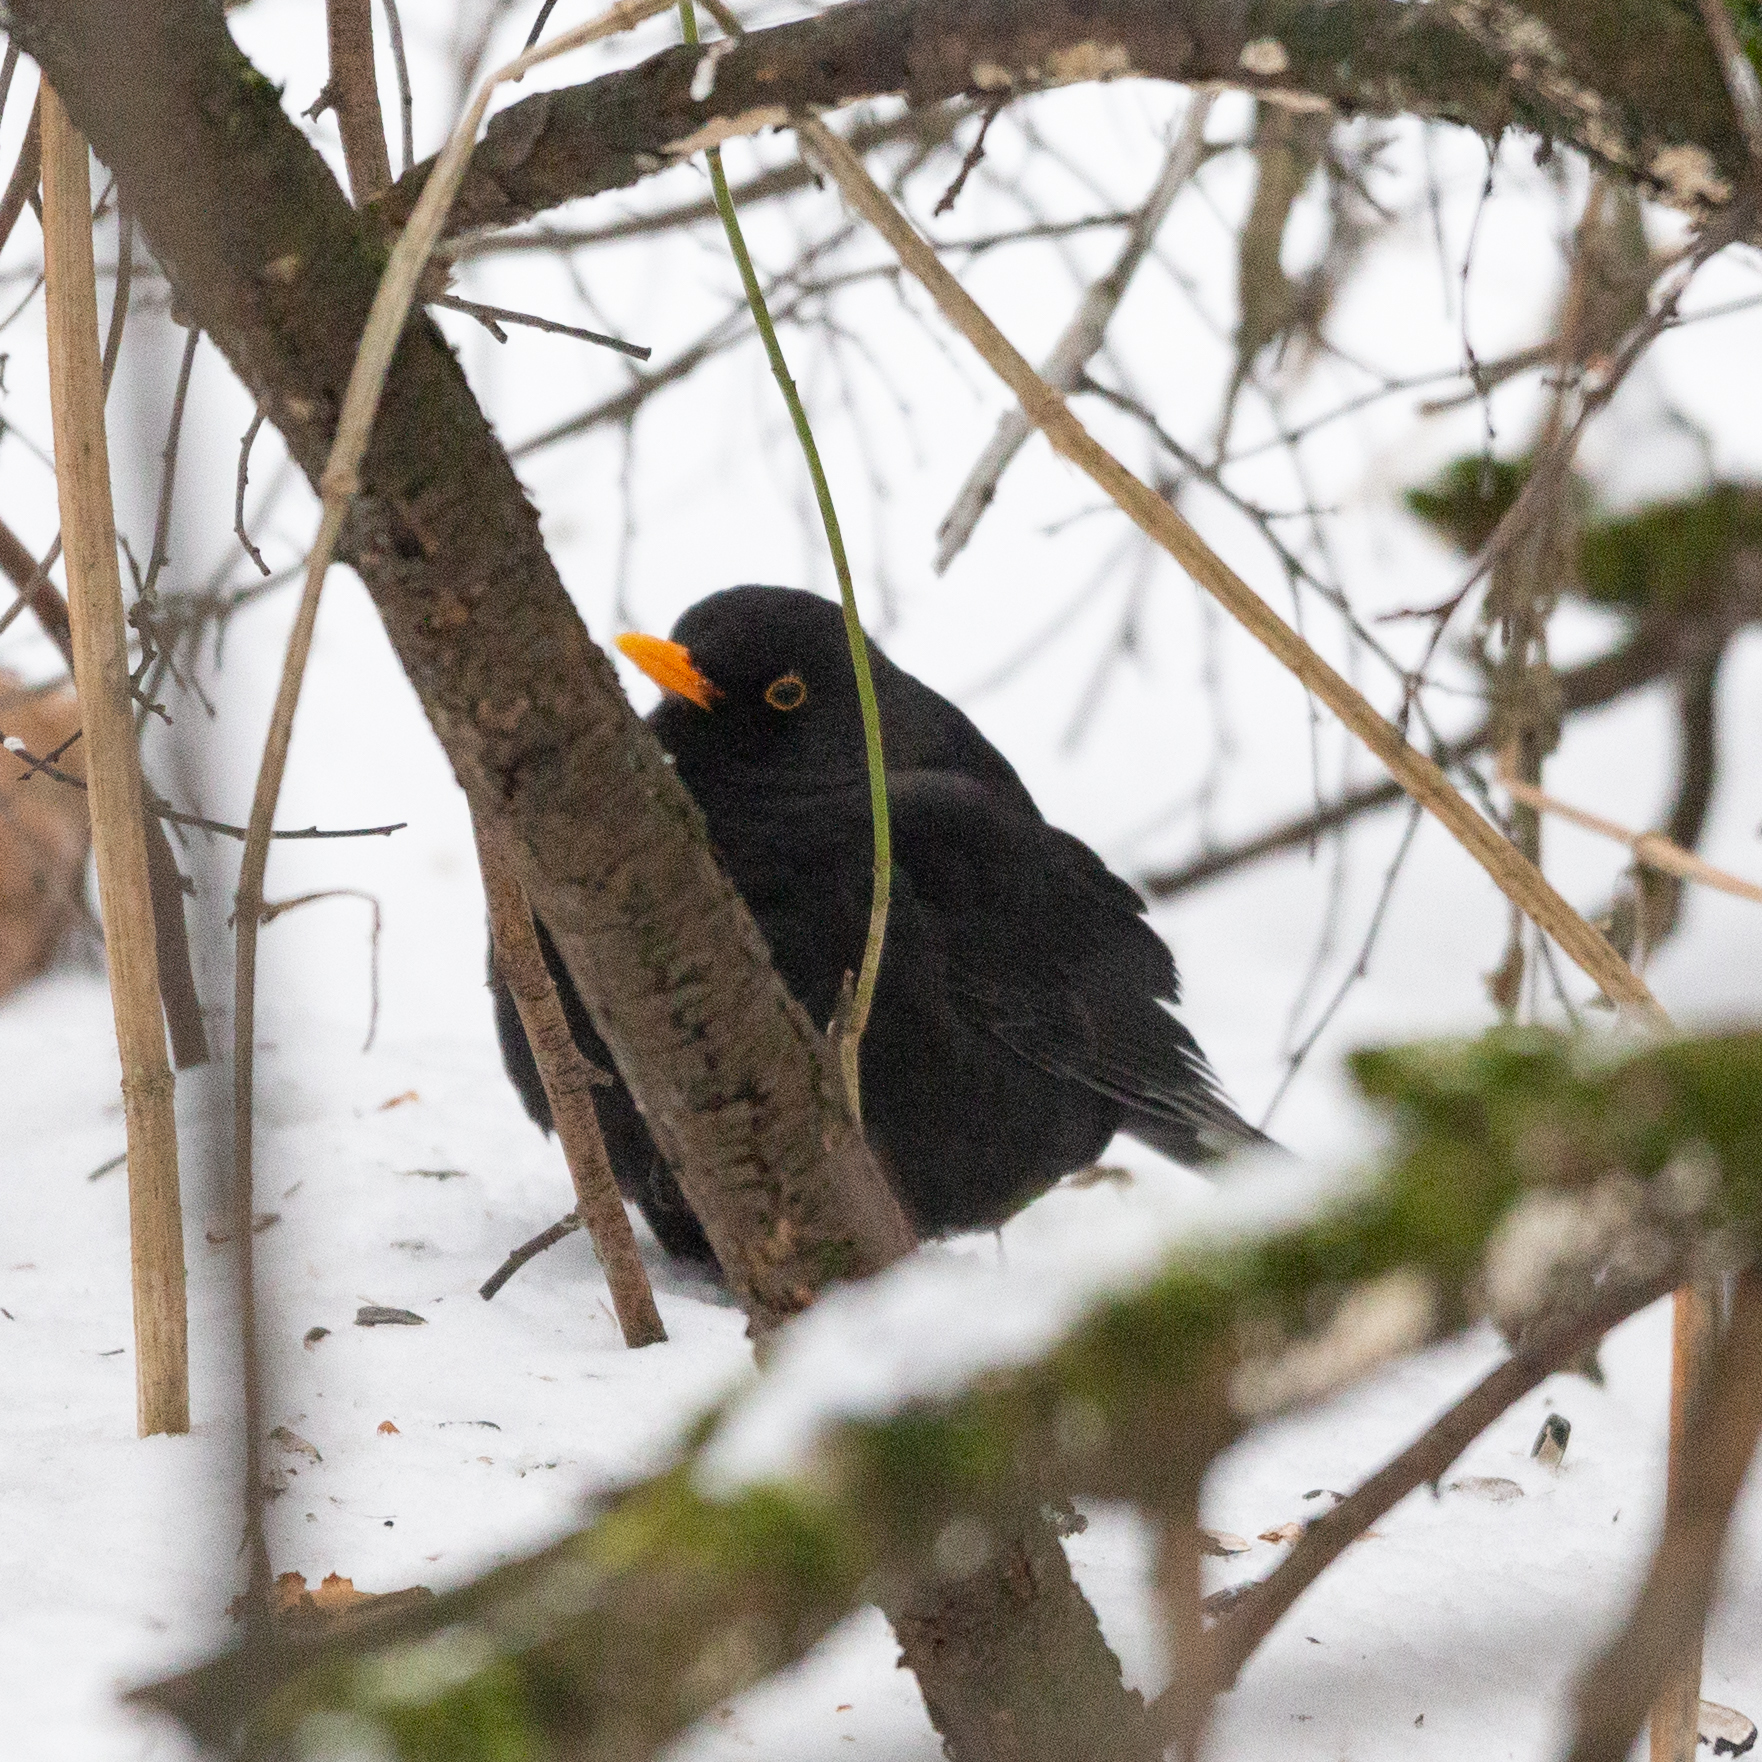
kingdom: Animalia
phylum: Chordata
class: Aves
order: Passeriformes
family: Turdidae
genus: Turdus
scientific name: Turdus merula
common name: Common blackbird
